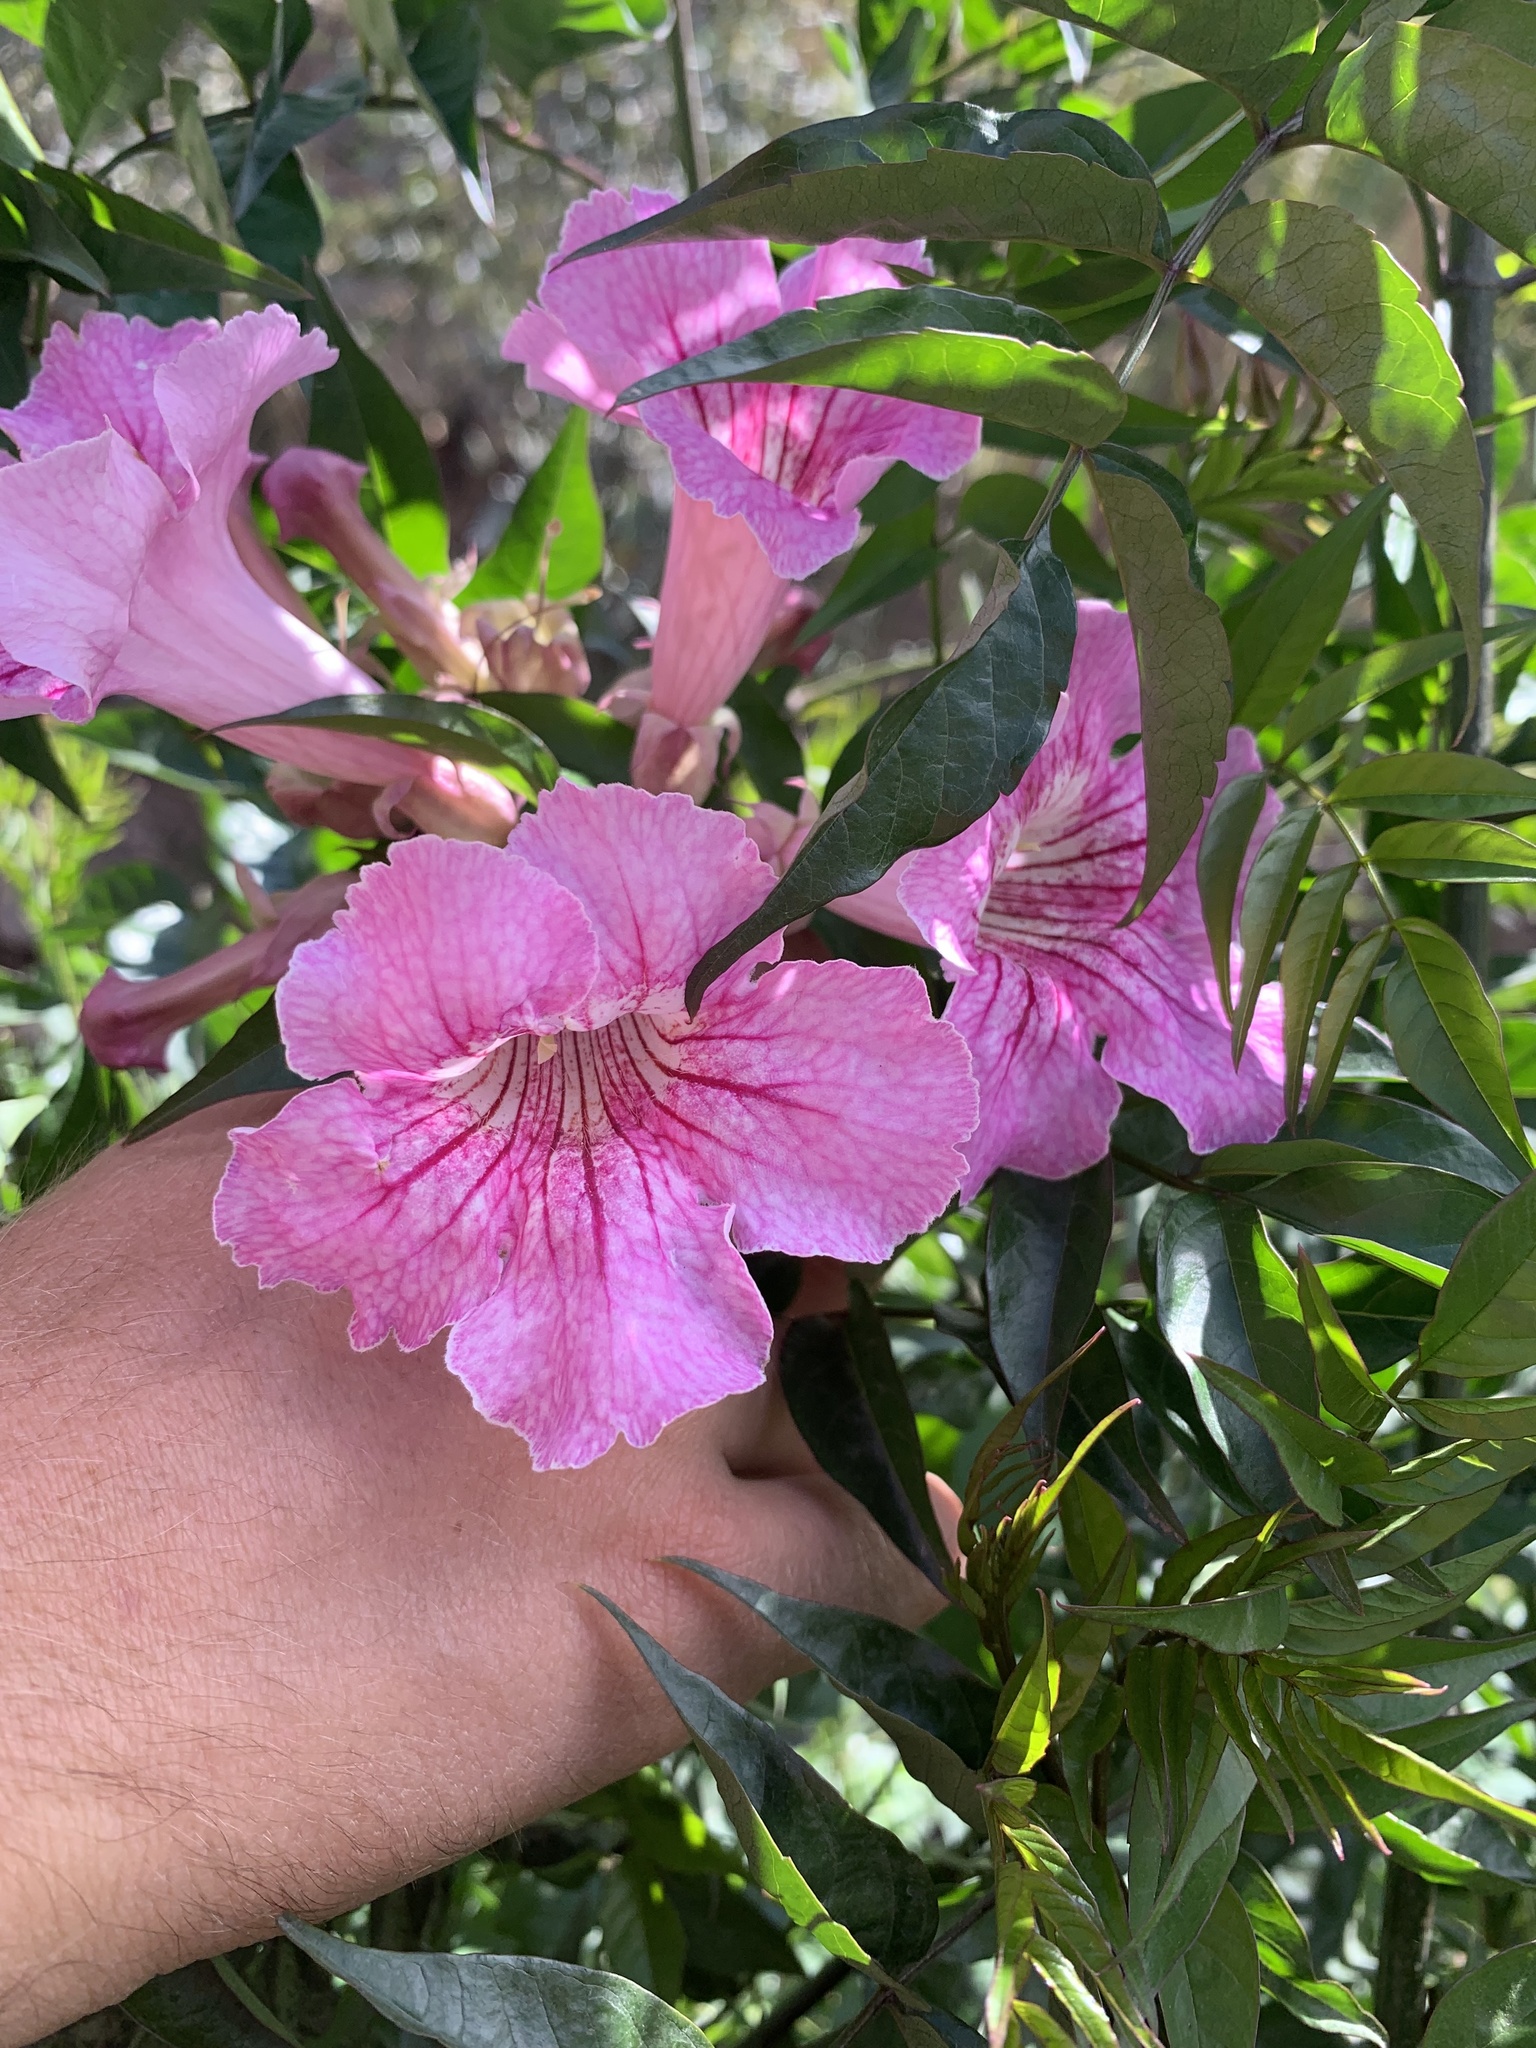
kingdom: Plantae
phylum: Tracheophyta
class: Magnoliopsida
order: Lamiales
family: Bignoniaceae
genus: Podranea
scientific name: Podranea ricasoliana
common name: Zimbabwe creeper
